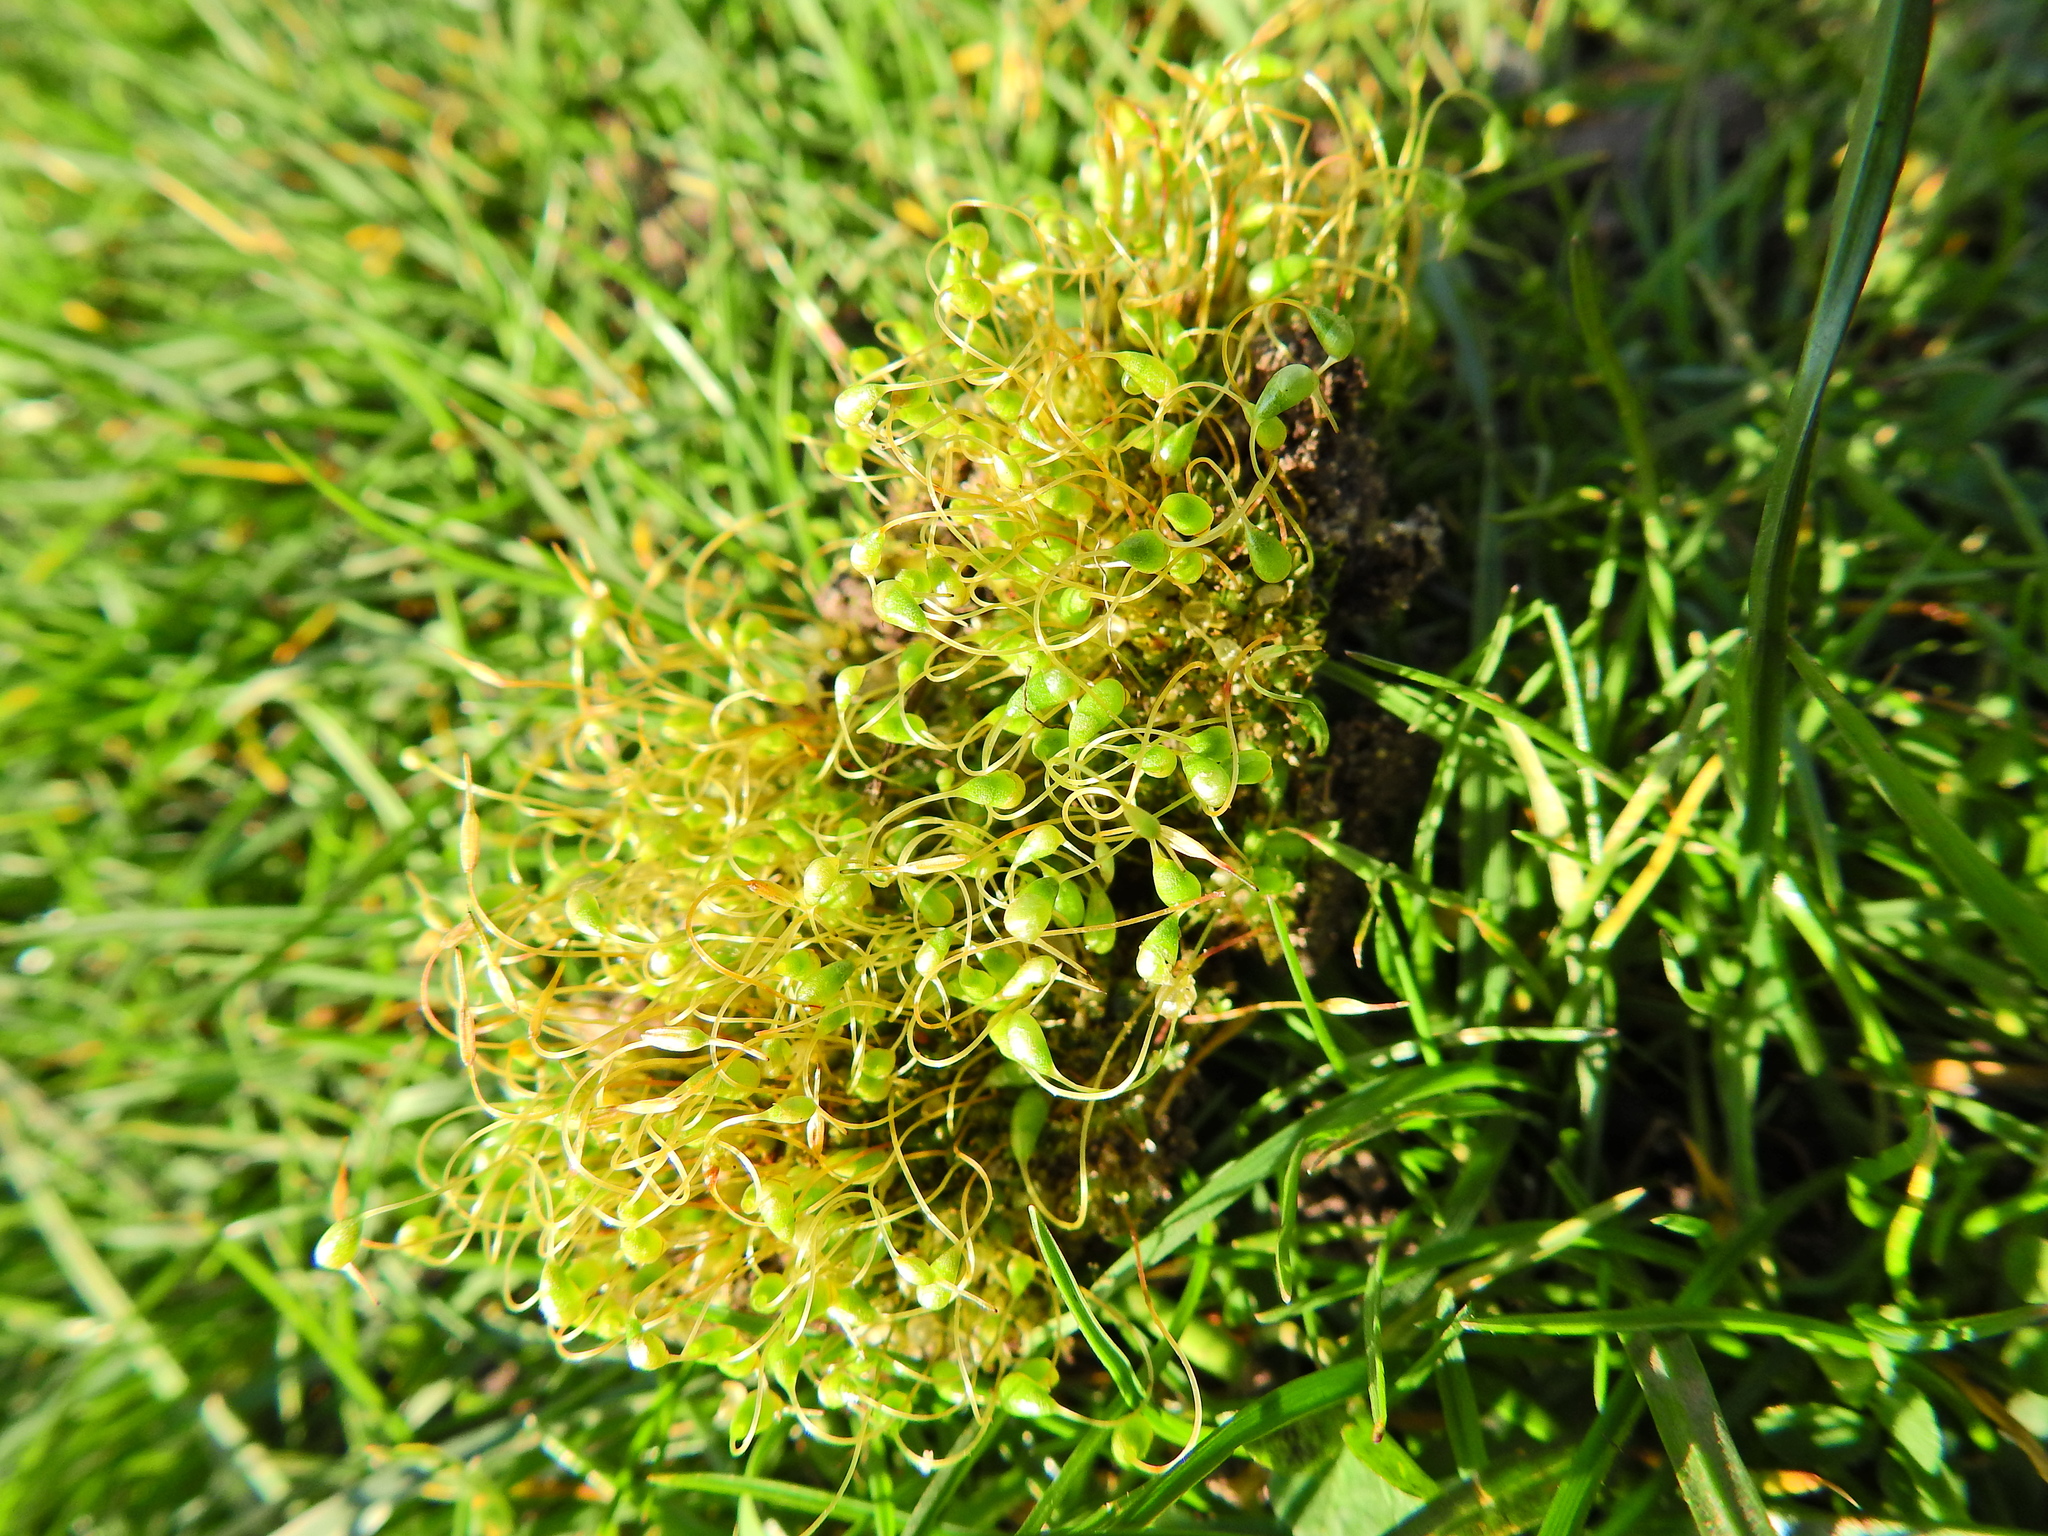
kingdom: Plantae
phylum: Bryophyta
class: Bryopsida
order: Funariales
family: Funariaceae
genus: Funaria
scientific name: Funaria hygrometrica
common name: Common cord moss
